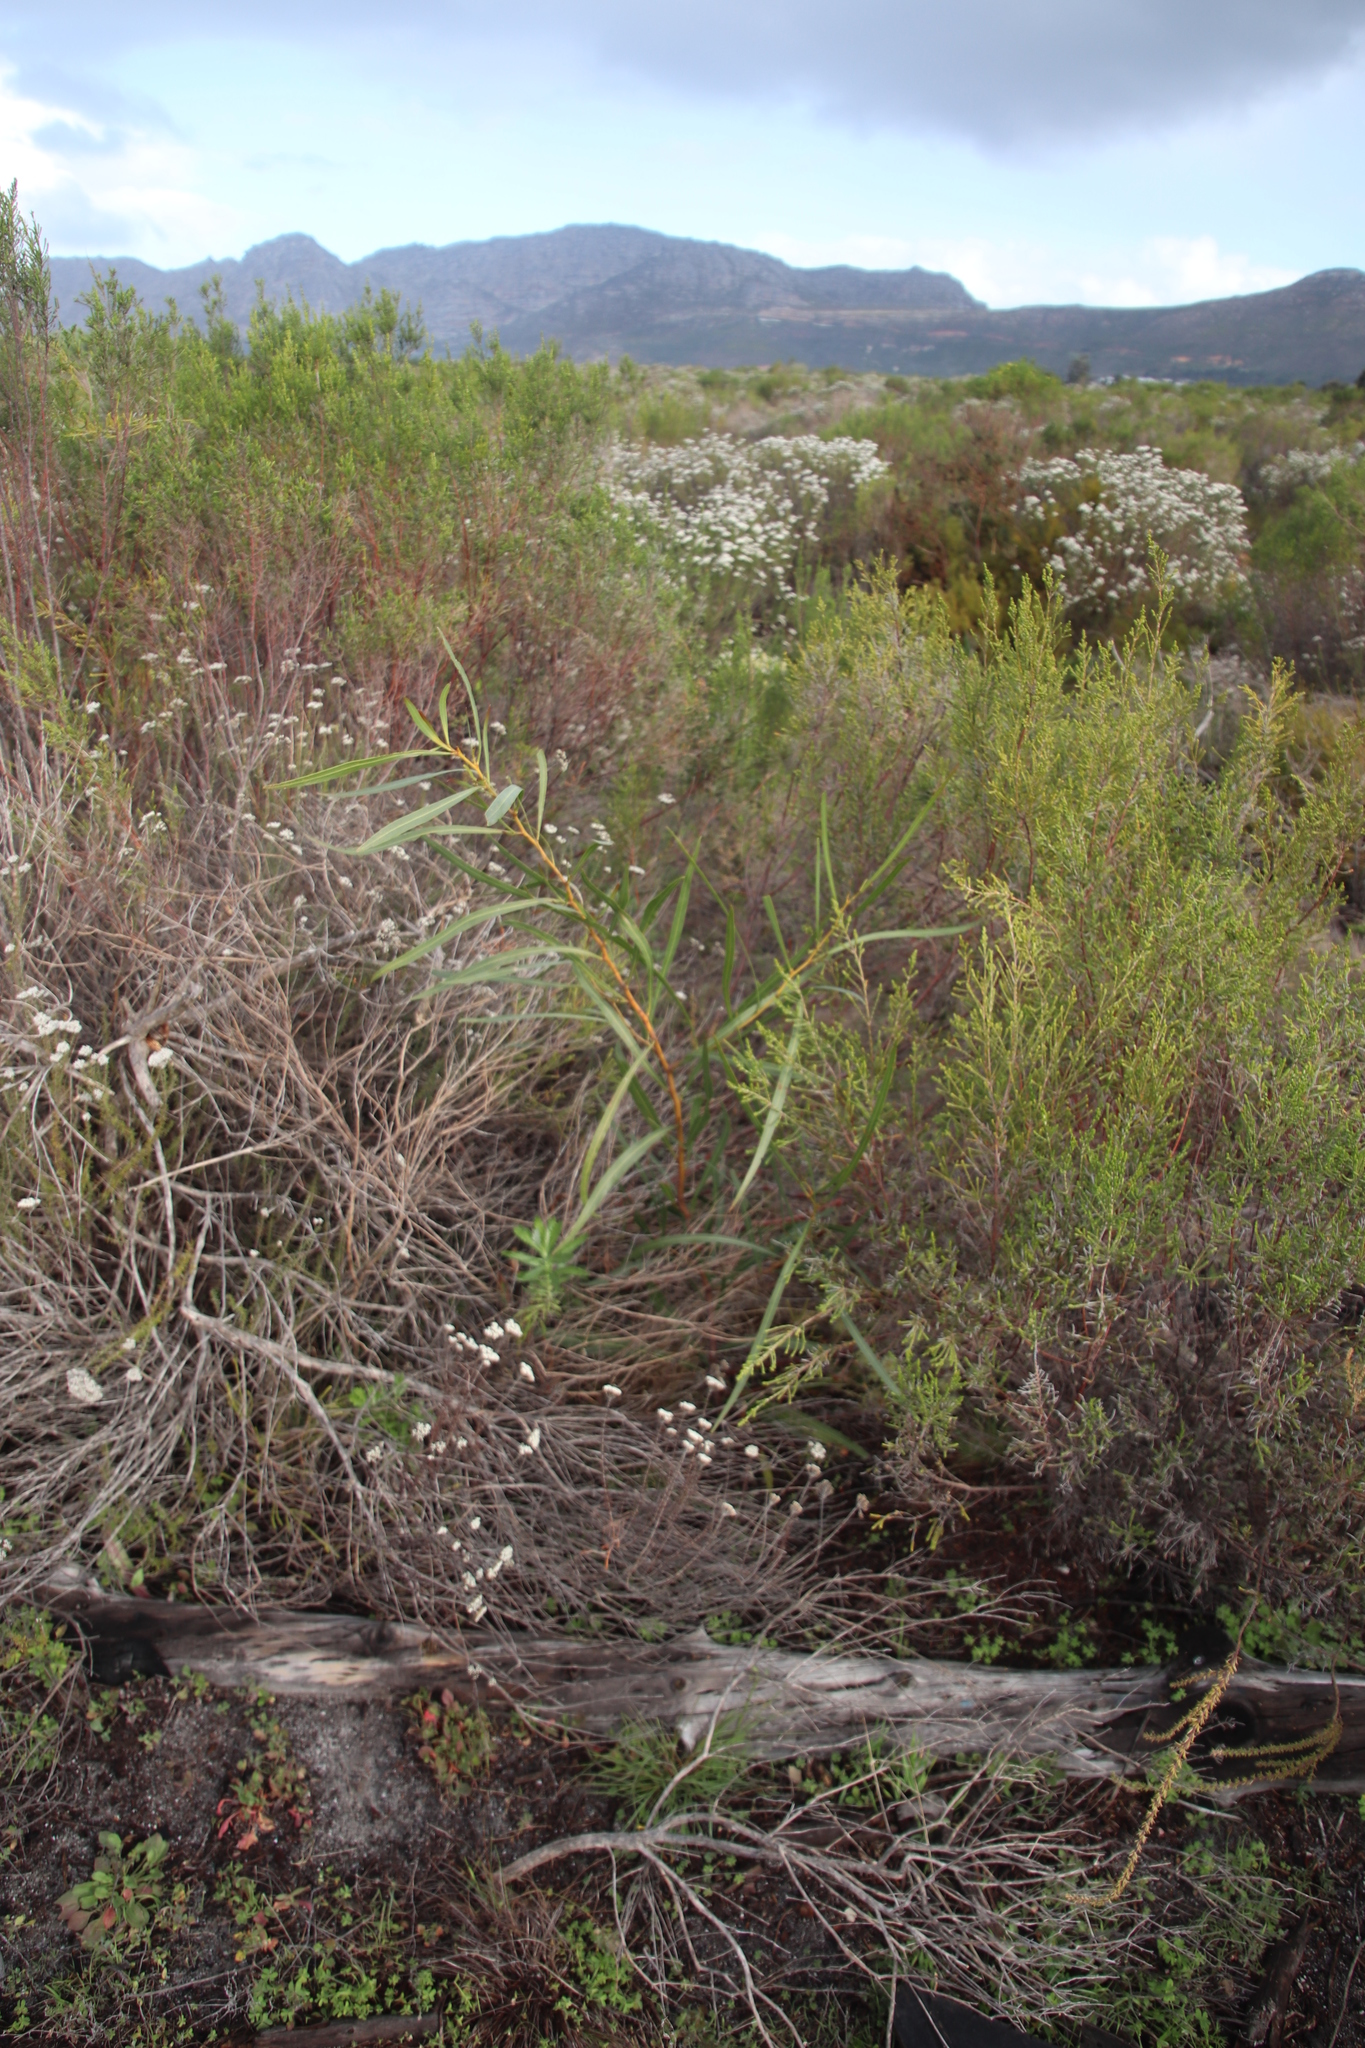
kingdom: Plantae
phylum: Tracheophyta
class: Magnoliopsida
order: Fabales
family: Fabaceae
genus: Acacia
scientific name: Acacia saligna
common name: Orange wattle
